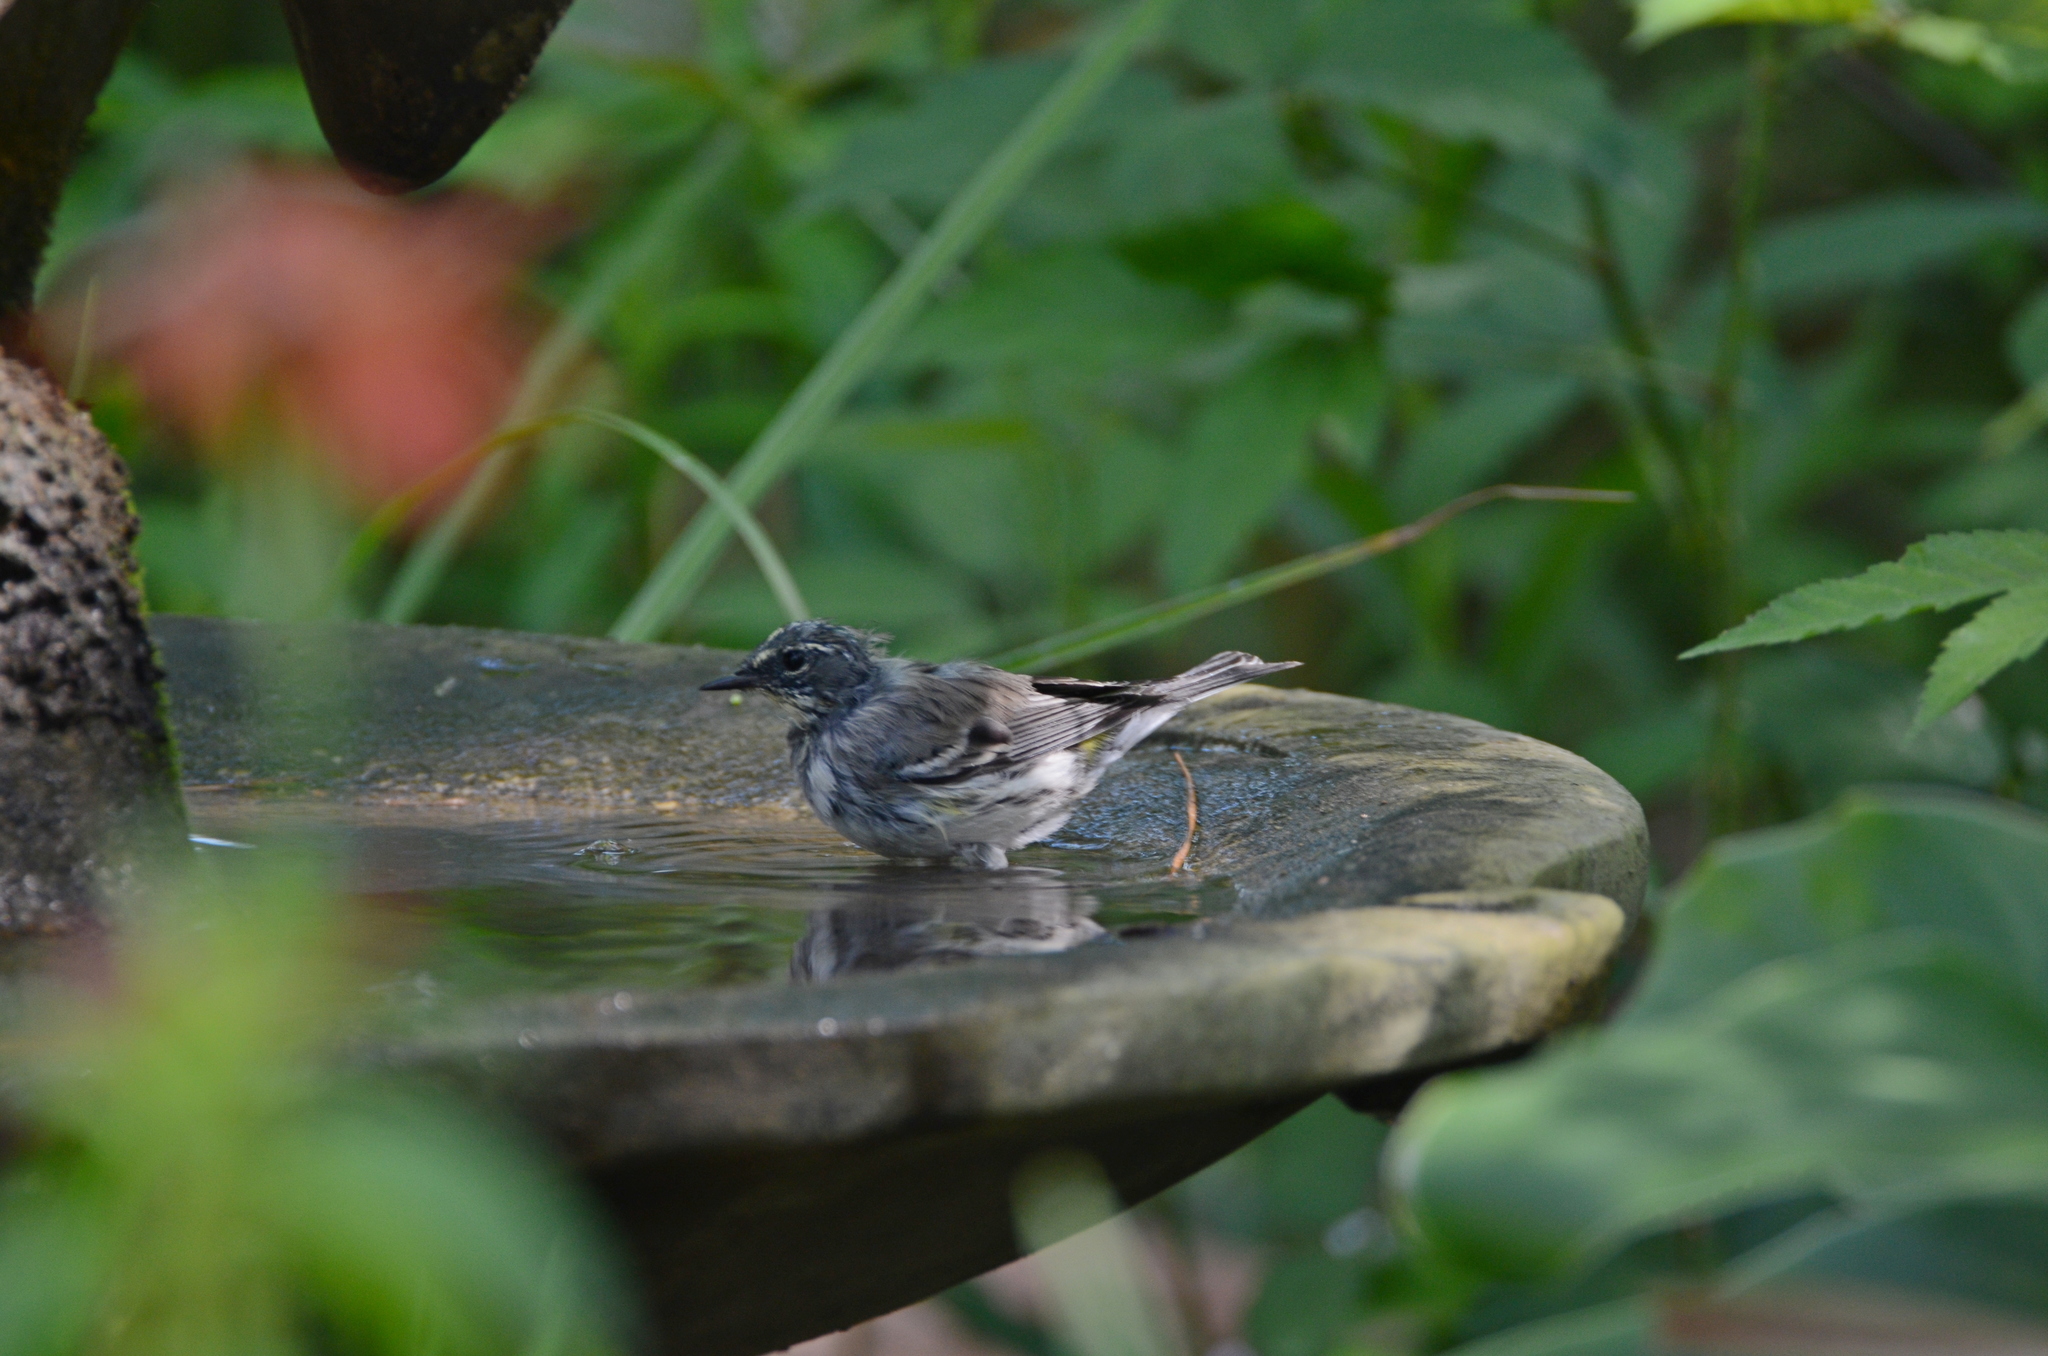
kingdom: Animalia
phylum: Chordata
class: Aves
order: Passeriformes
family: Parulidae
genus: Setophaga
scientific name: Setophaga coronata
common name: Myrtle warbler
